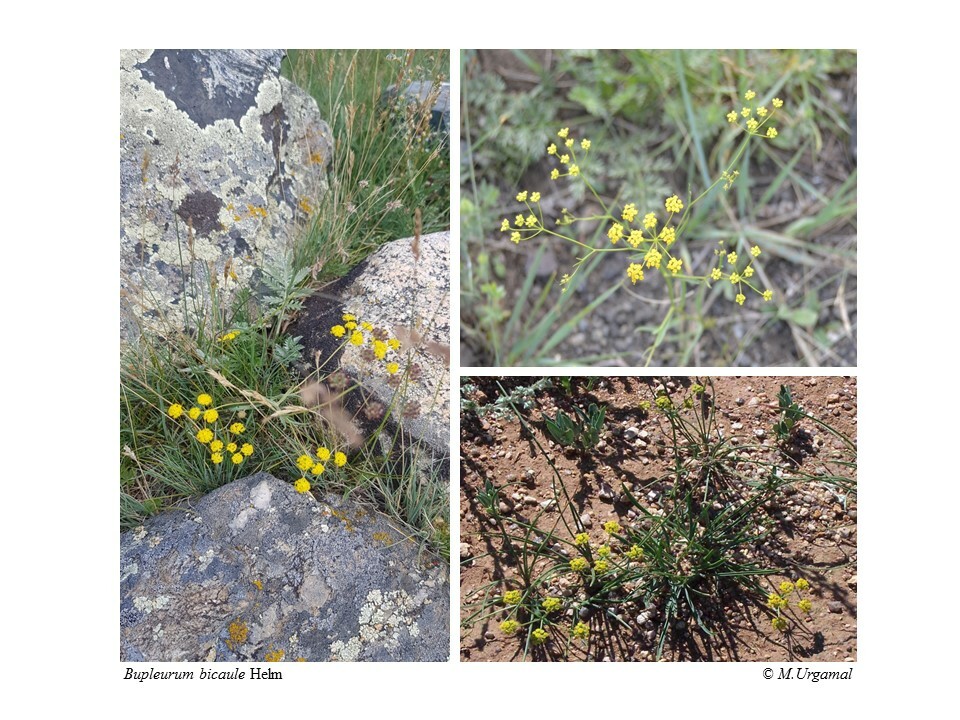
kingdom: Plantae
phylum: Tracheophyta
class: Magnoliopsida
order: Apiales
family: Apiaceae
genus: Bupleurum
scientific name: Bupleurum bicaule
